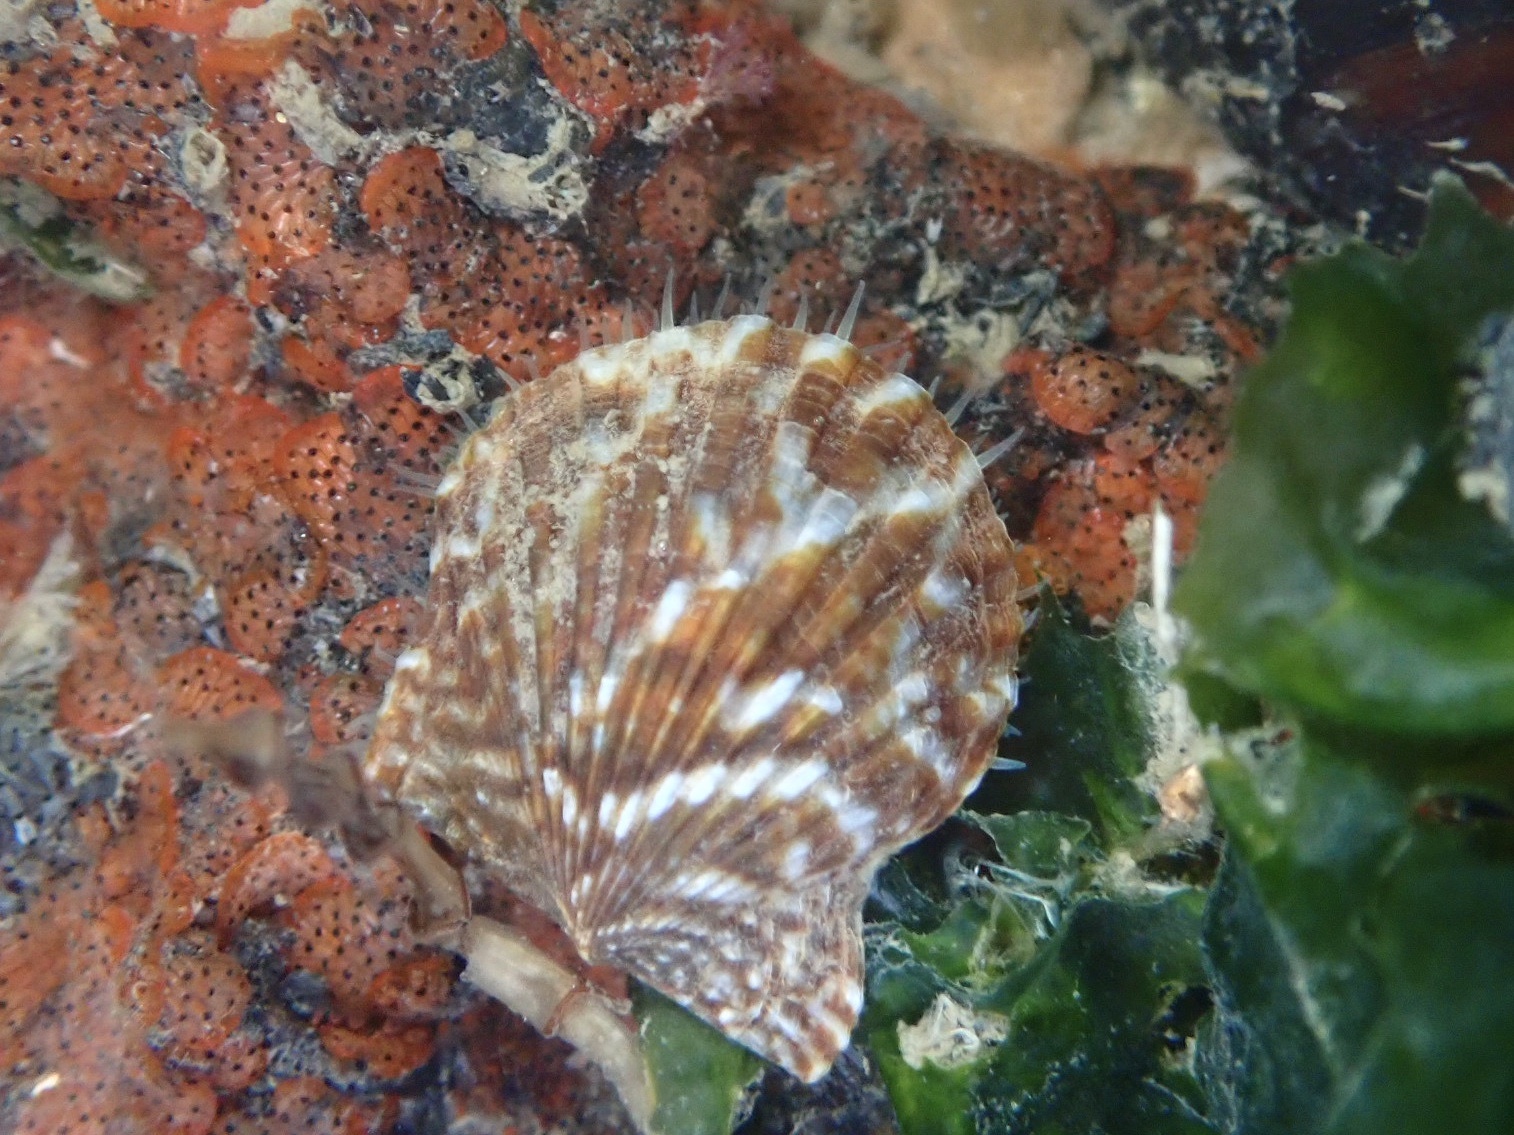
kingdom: Animalia
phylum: Mollusca
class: Bivalvia
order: Pectinida
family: Pectinidae
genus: Leptopecten
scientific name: Leptopecten latiauratus
